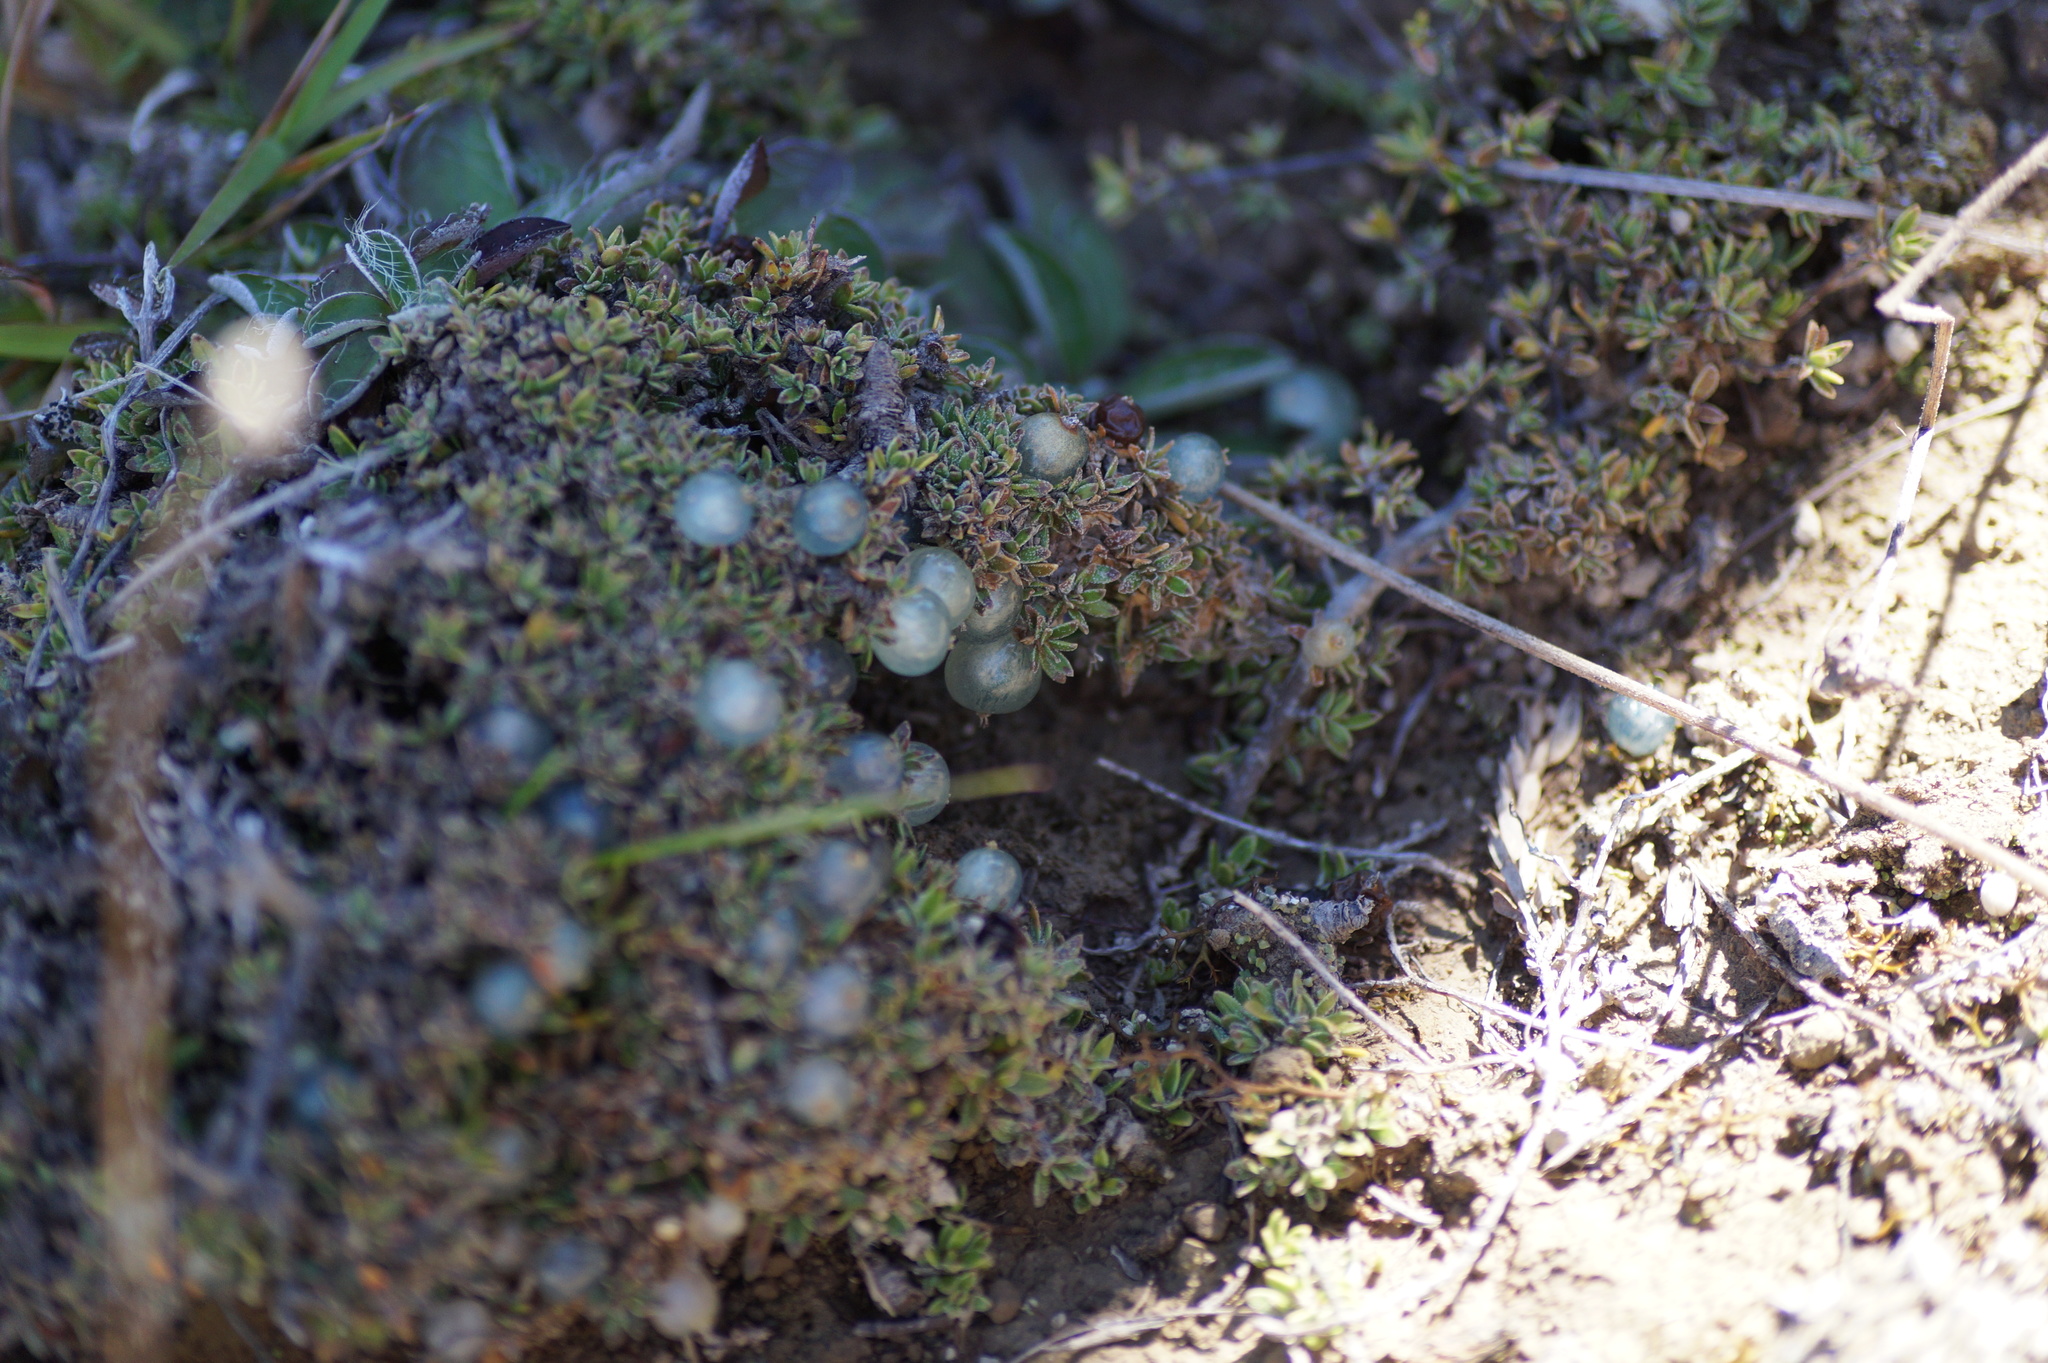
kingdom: Plantae
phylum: Tracheophyta
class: Magnoliopsida
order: Gentianales
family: Rubiaceae
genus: Coprosma
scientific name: Coprosma petriei
